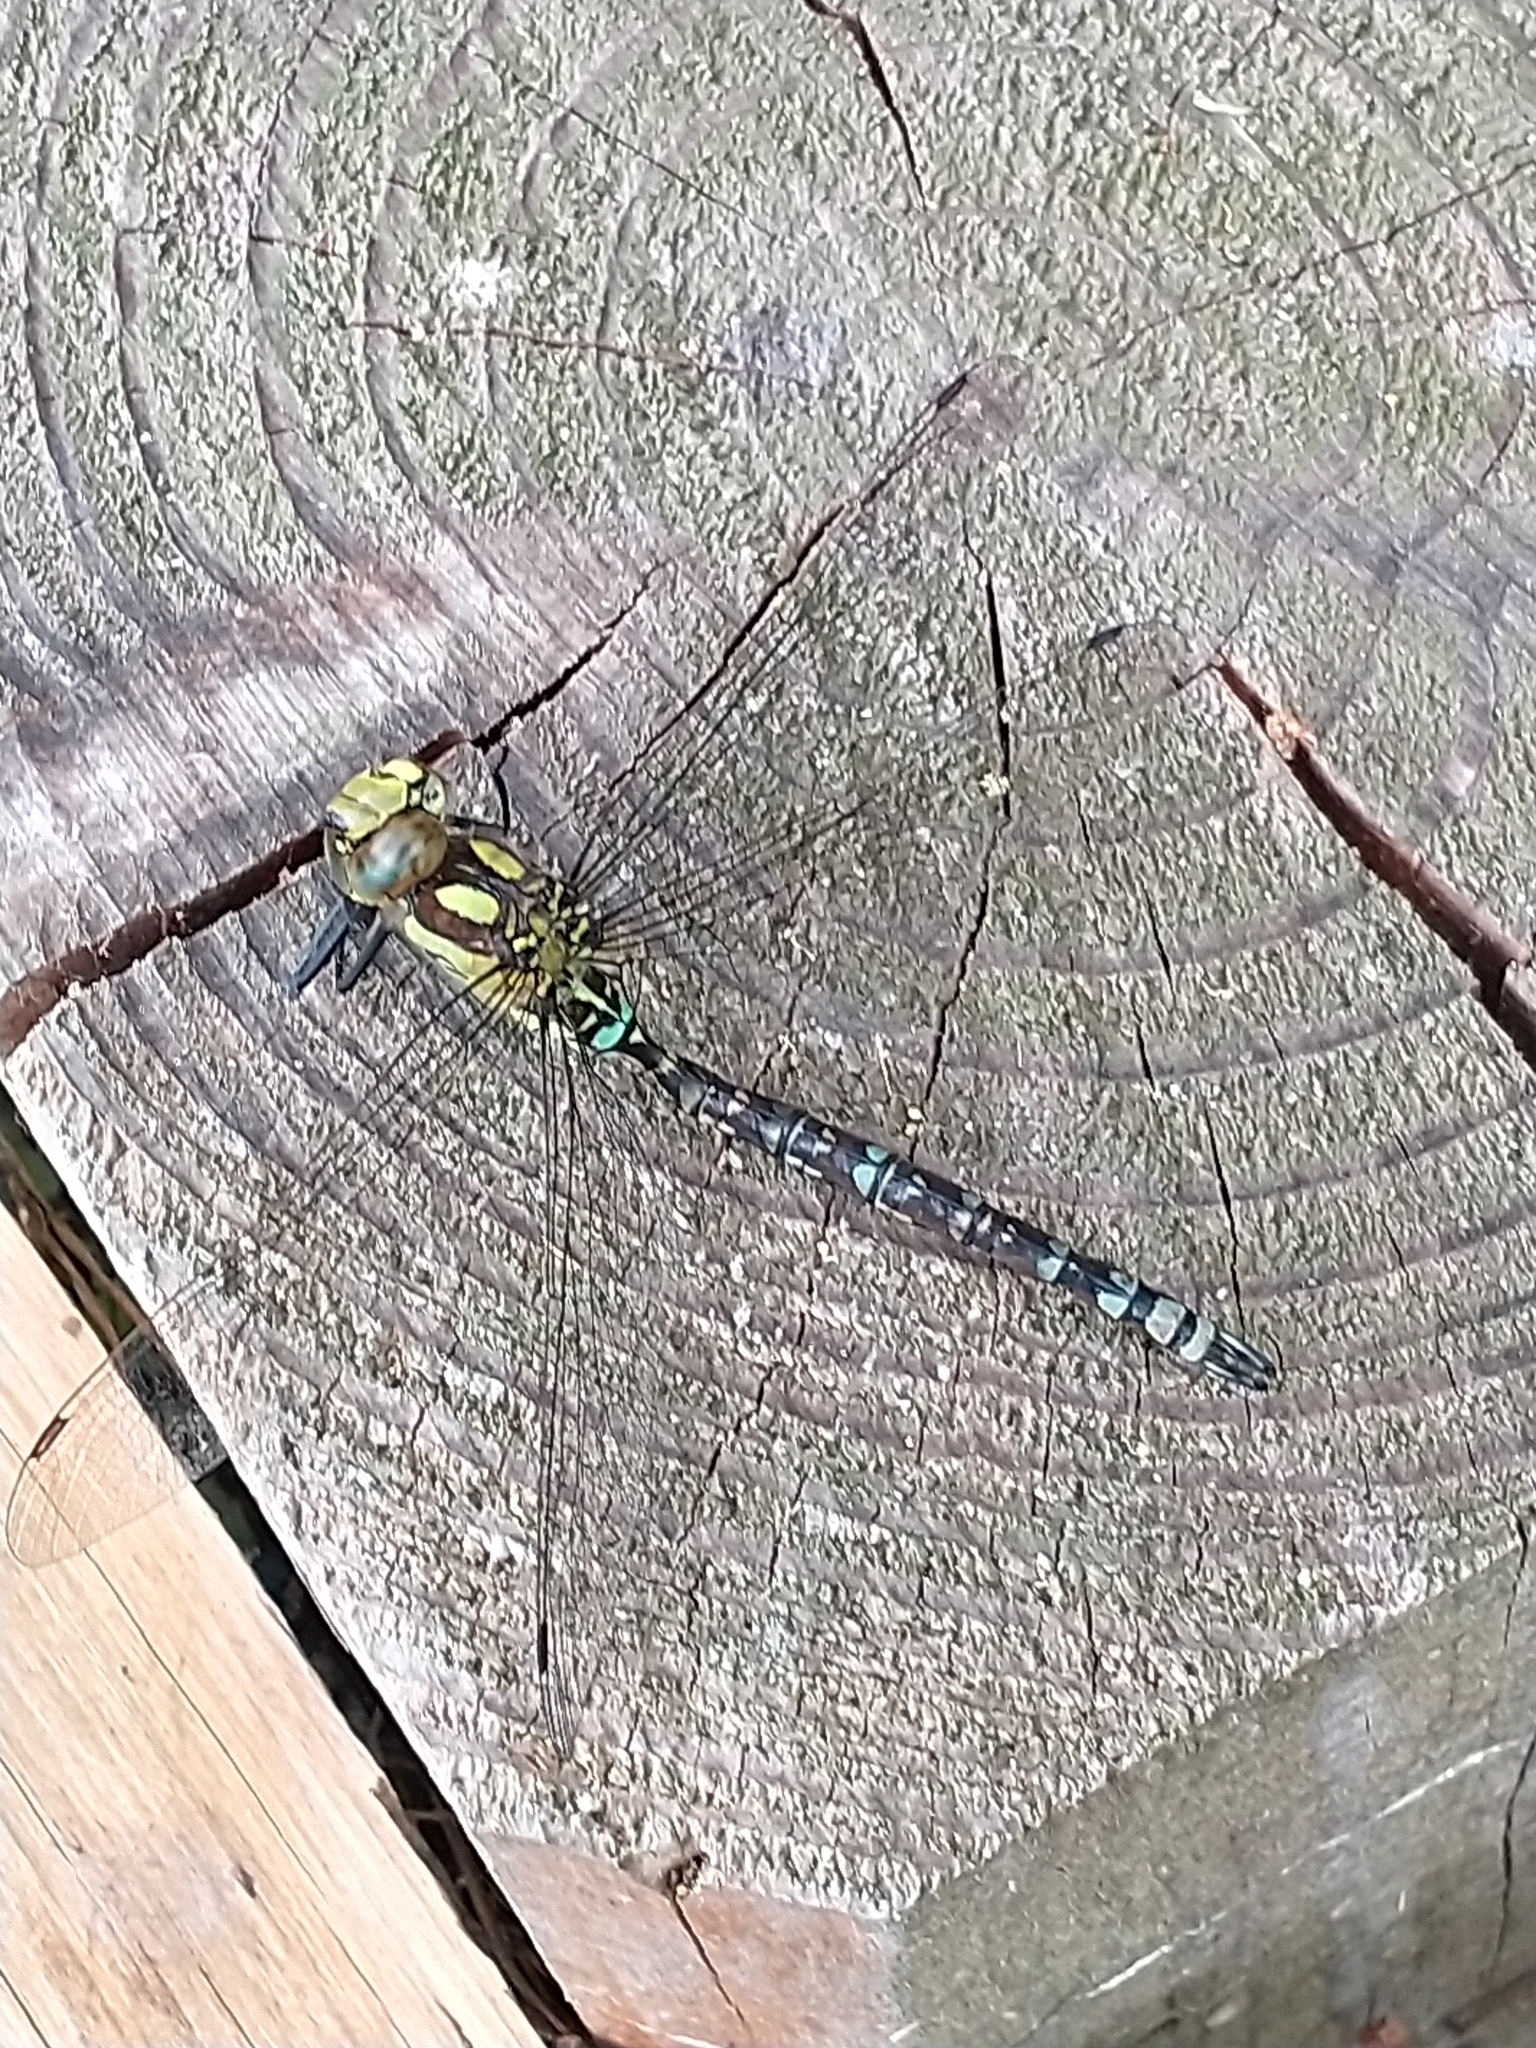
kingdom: Animalia
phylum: Arthropoda
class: Insecta
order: Odonata
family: Aeshnidae
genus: Aeshna
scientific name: Aeshna cyanea
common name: Southern hawker
